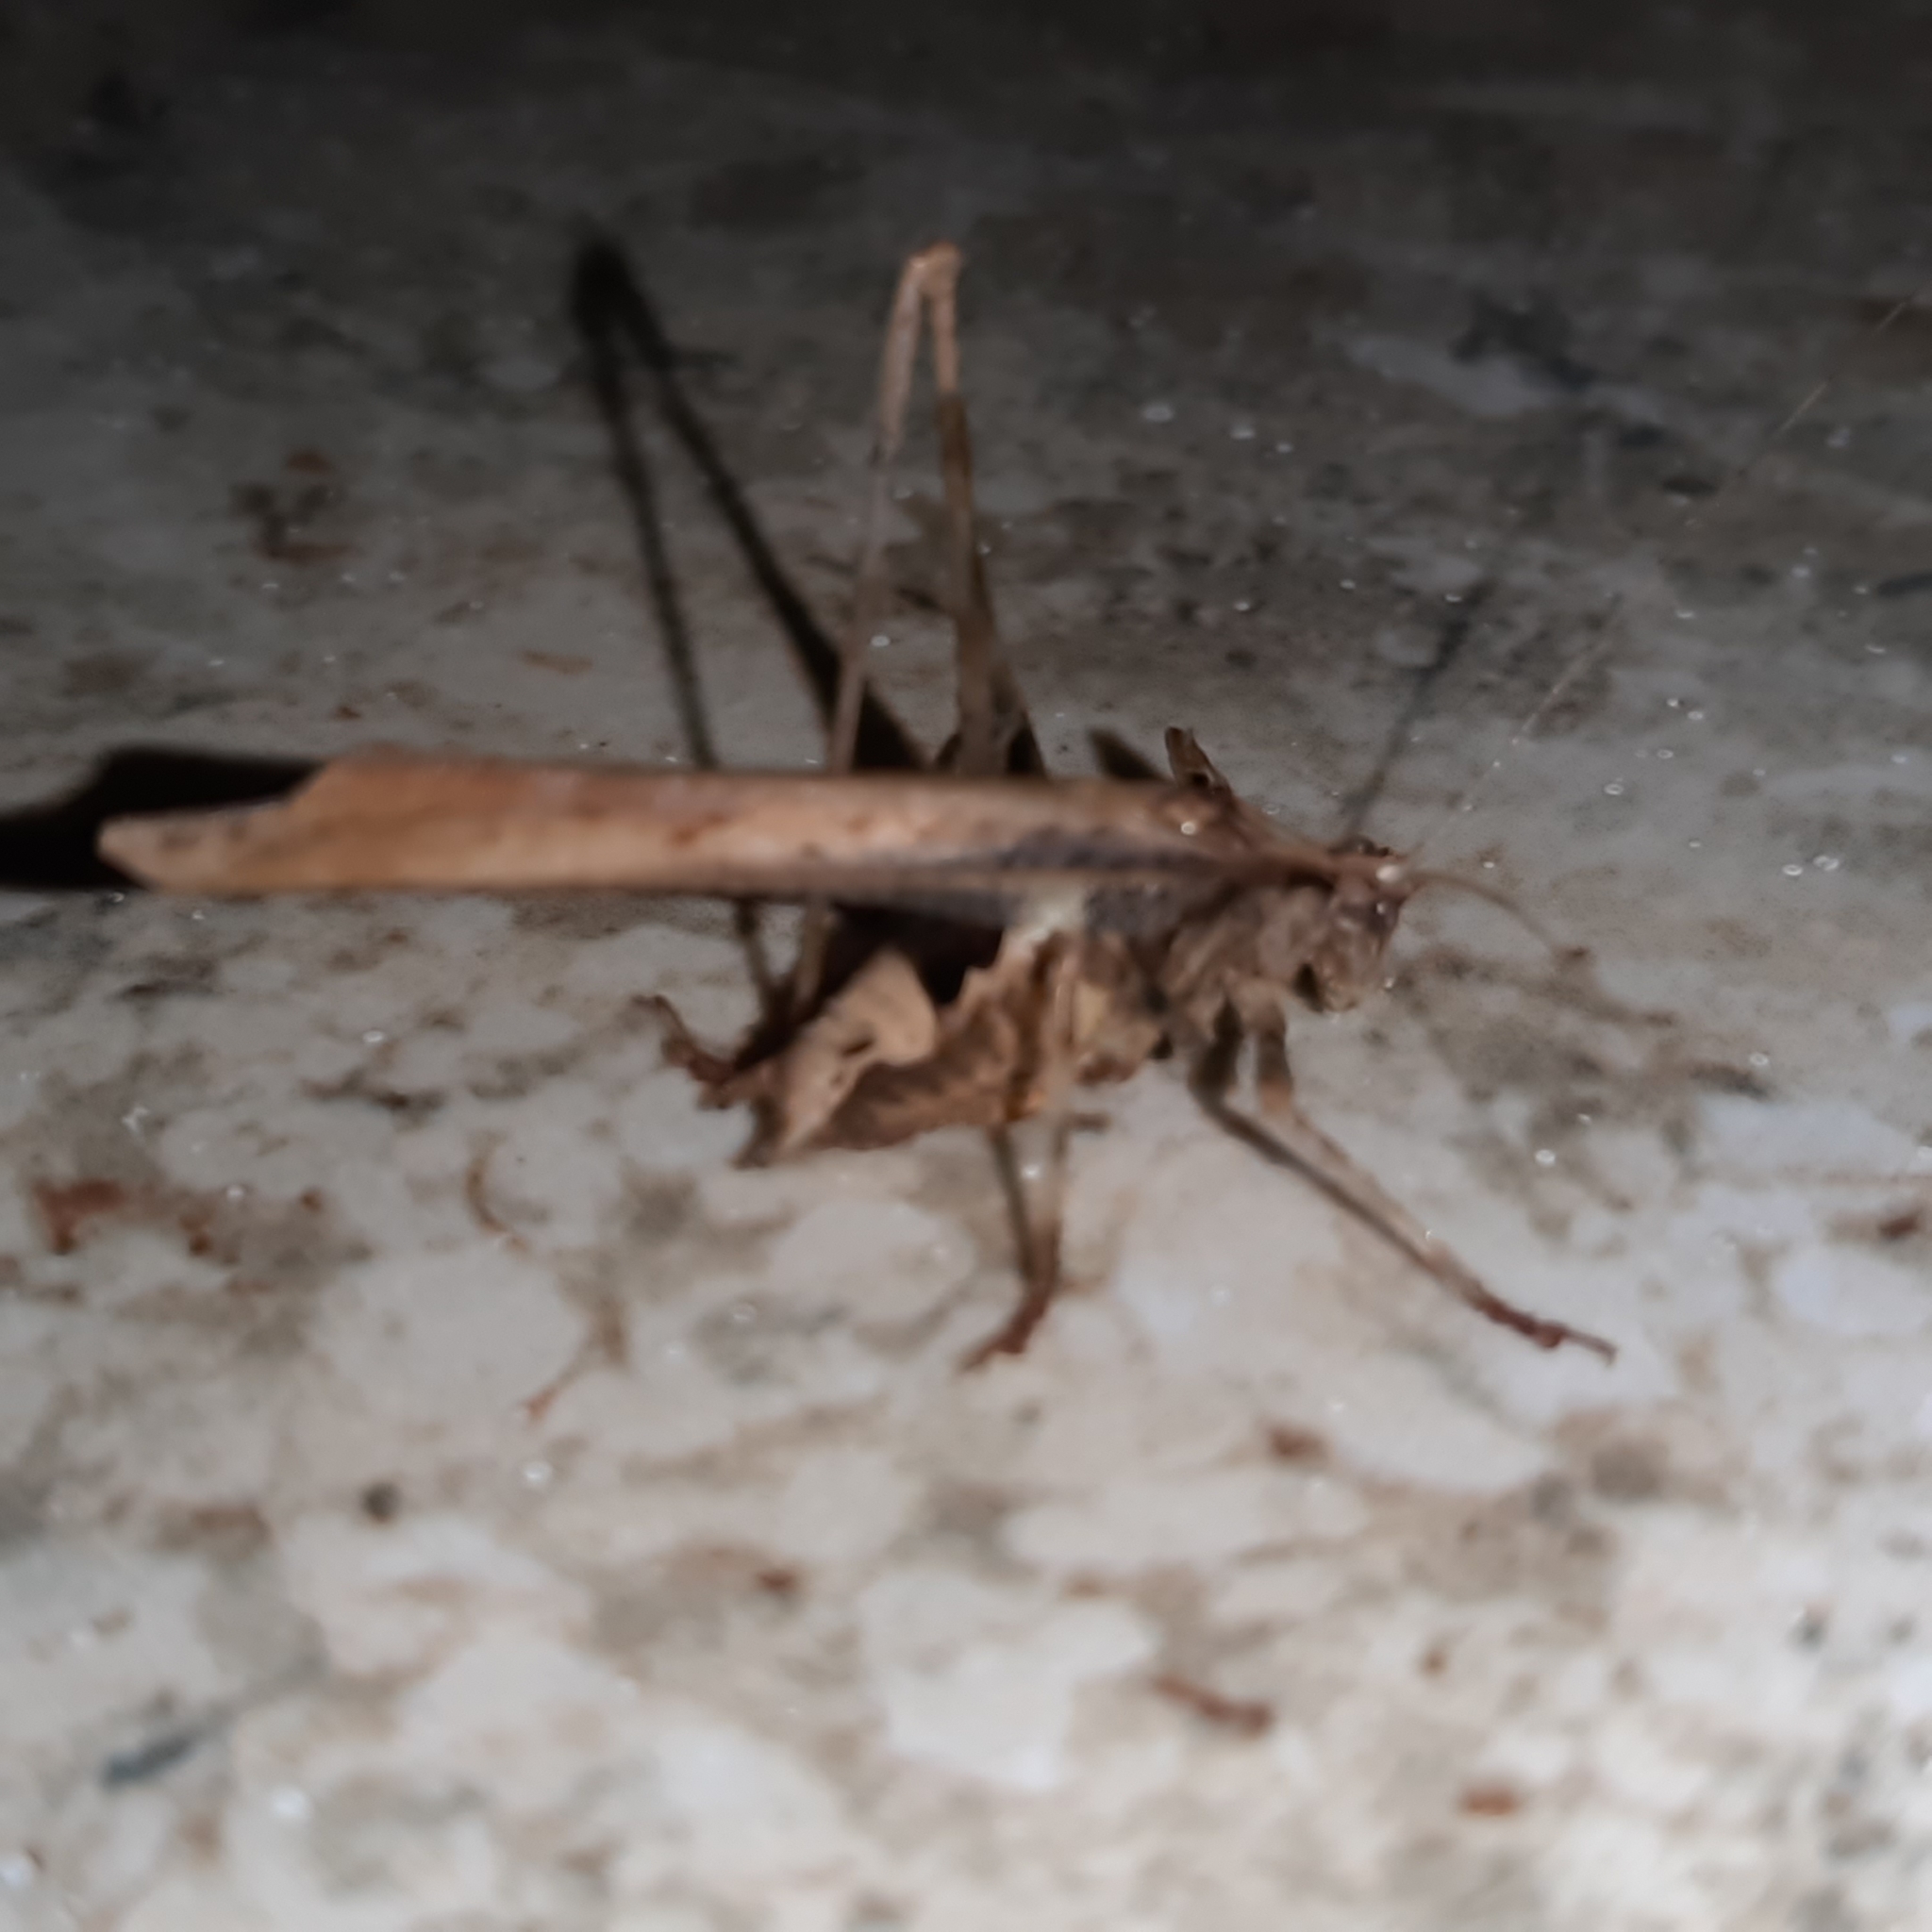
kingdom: Animalia
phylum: Arthropoda
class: Insecta
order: Orthoptera
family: Tettigoniidae
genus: Insara
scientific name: Insara bolivari
